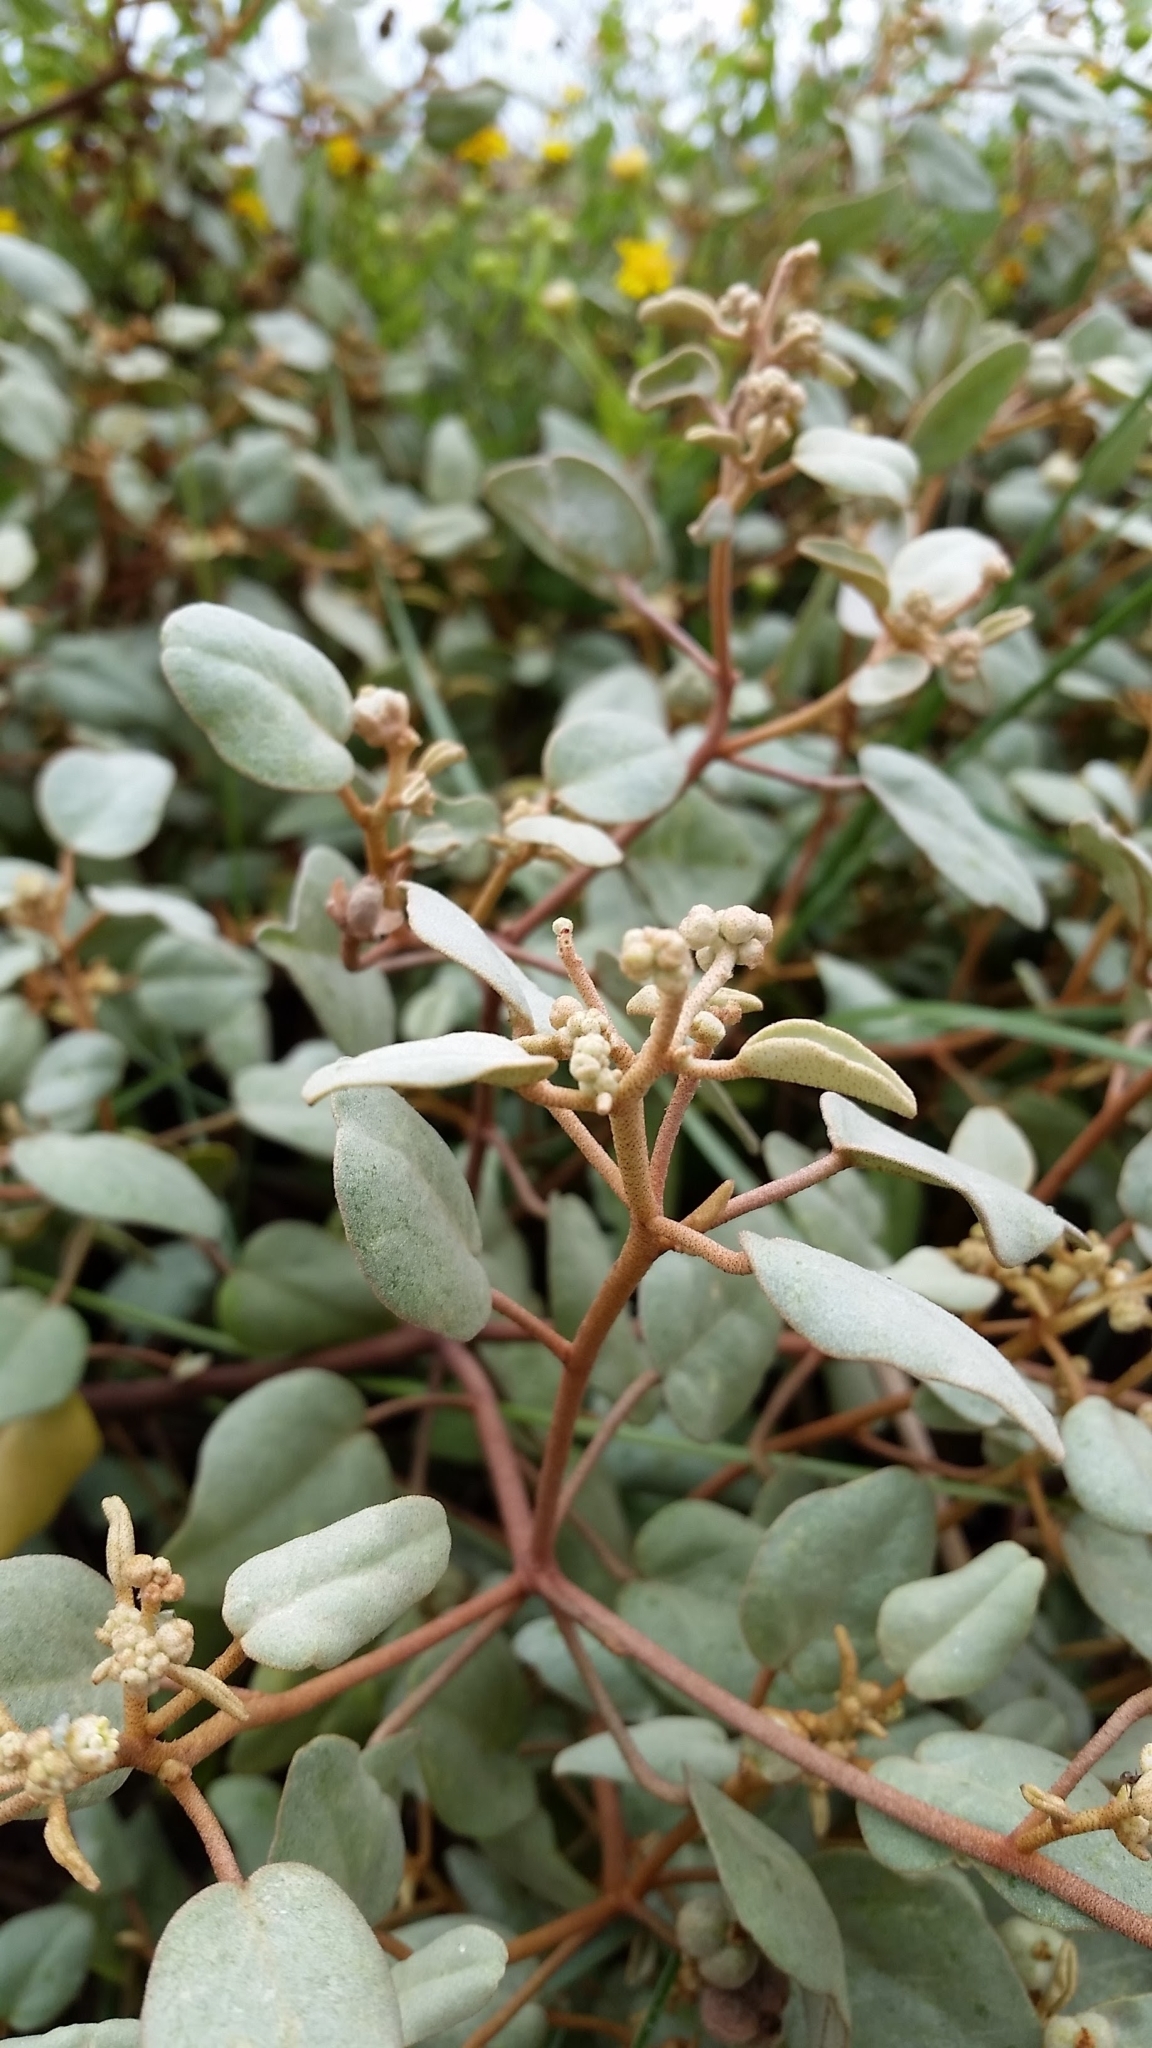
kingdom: Plantae
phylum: Tracheophyta
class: Magnoliopsida
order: Malpighiales
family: Euphorbiaceae
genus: Croton
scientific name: Croton punctatus
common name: Beach-tea
